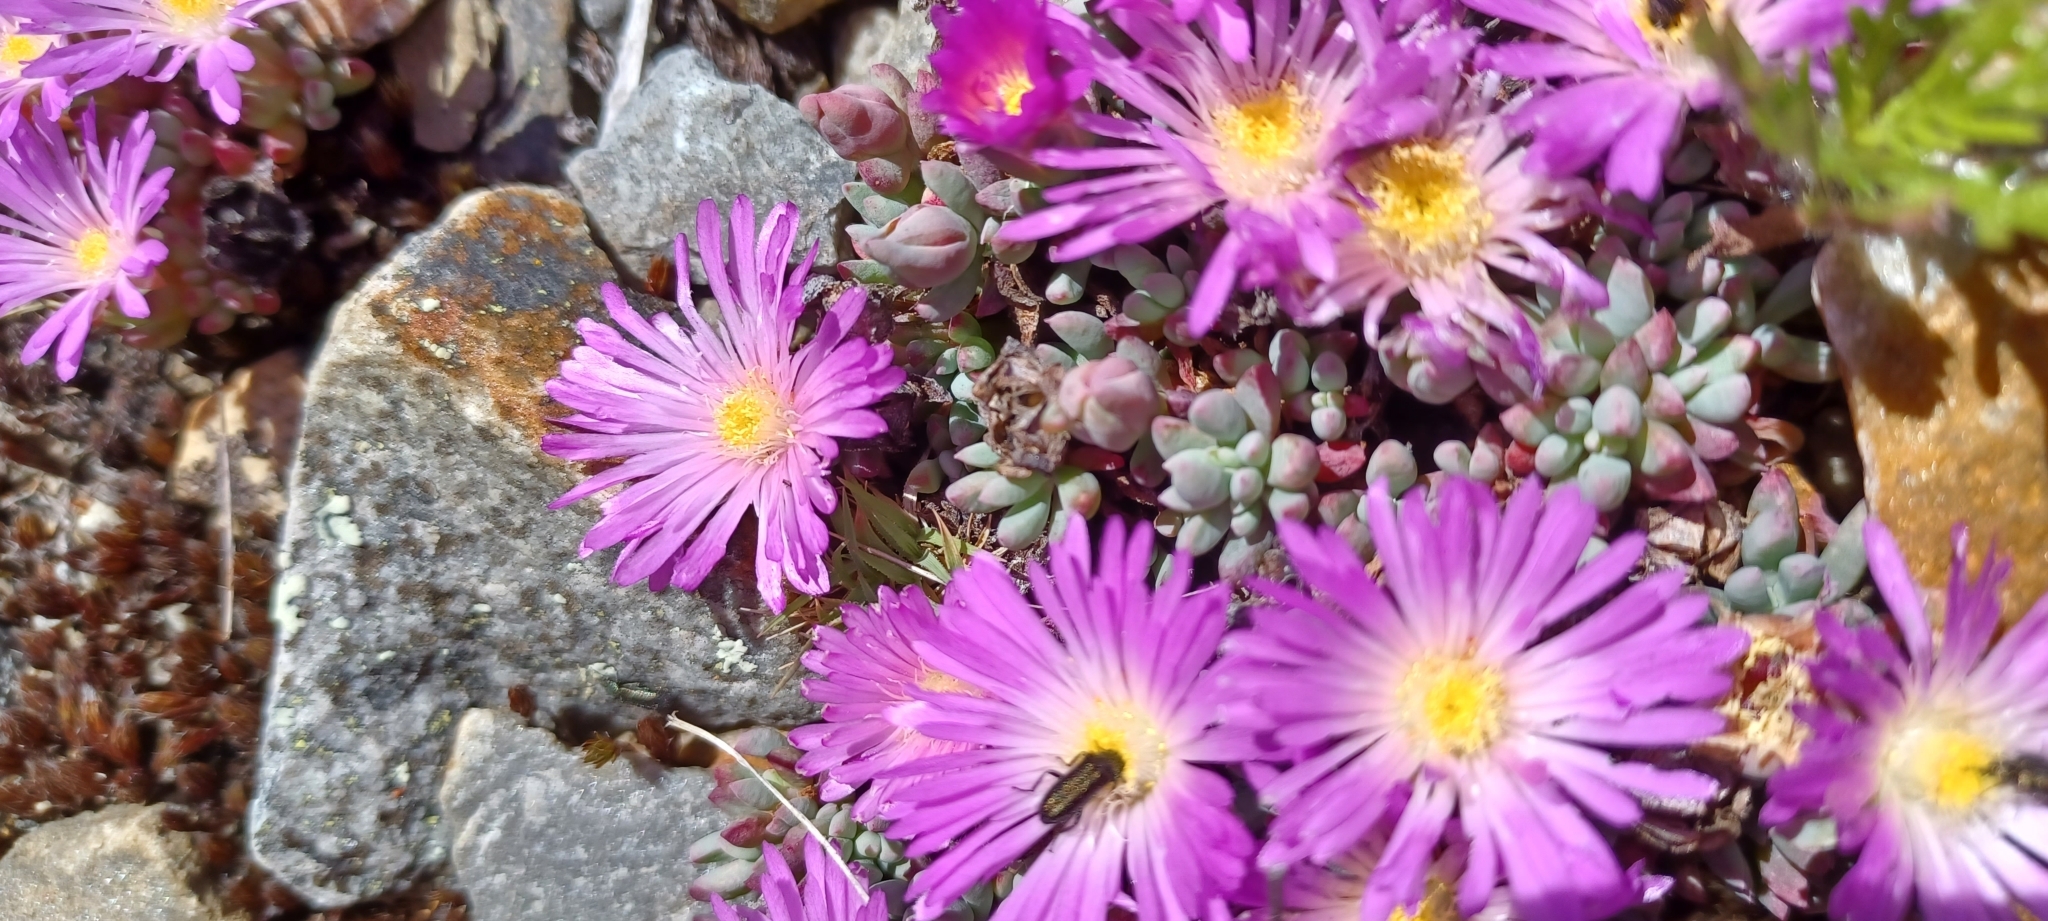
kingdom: Plantae
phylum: Tracheophyta
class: Magnoliopsida
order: Caryophyllales
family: Aizoaceae
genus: Esterhuysenia
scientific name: Esterhuysenia alpina
